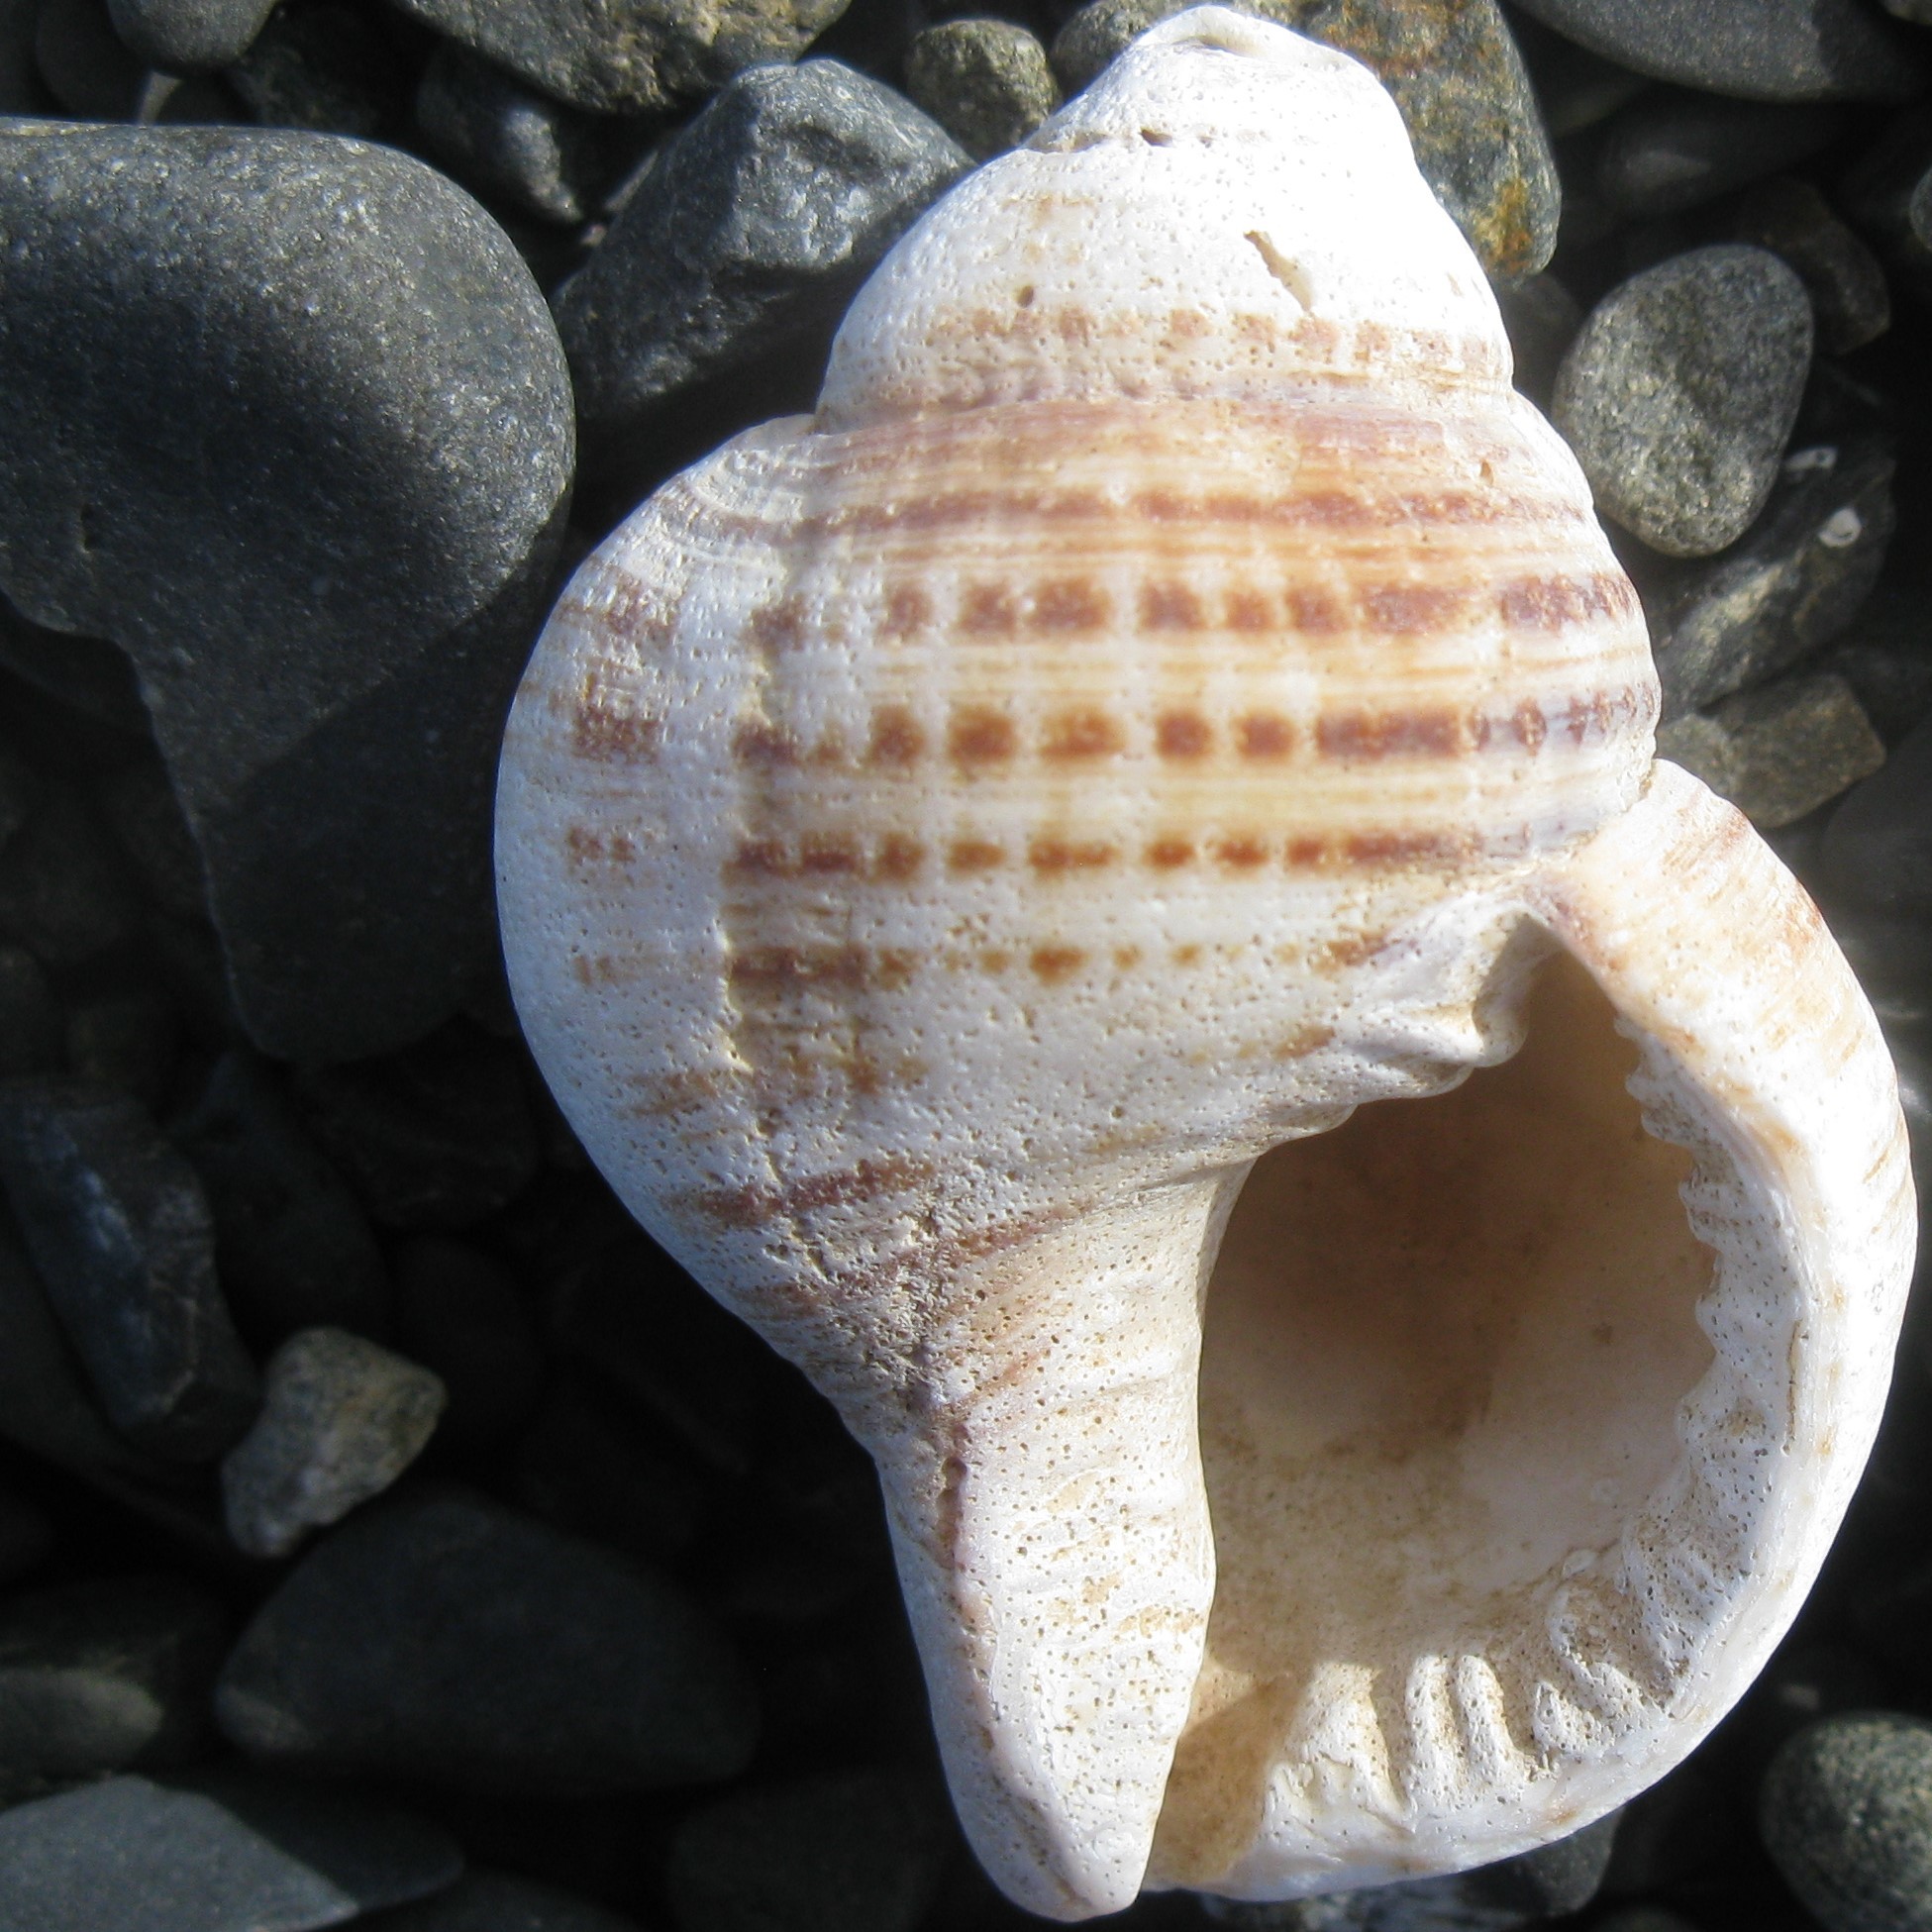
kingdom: Animalia
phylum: Mollusca
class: Gastropoda
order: Littorinimorpha
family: Cymatiidae
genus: Argobuccinum
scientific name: Argobuccinum pustulosum
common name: Pustular triton
